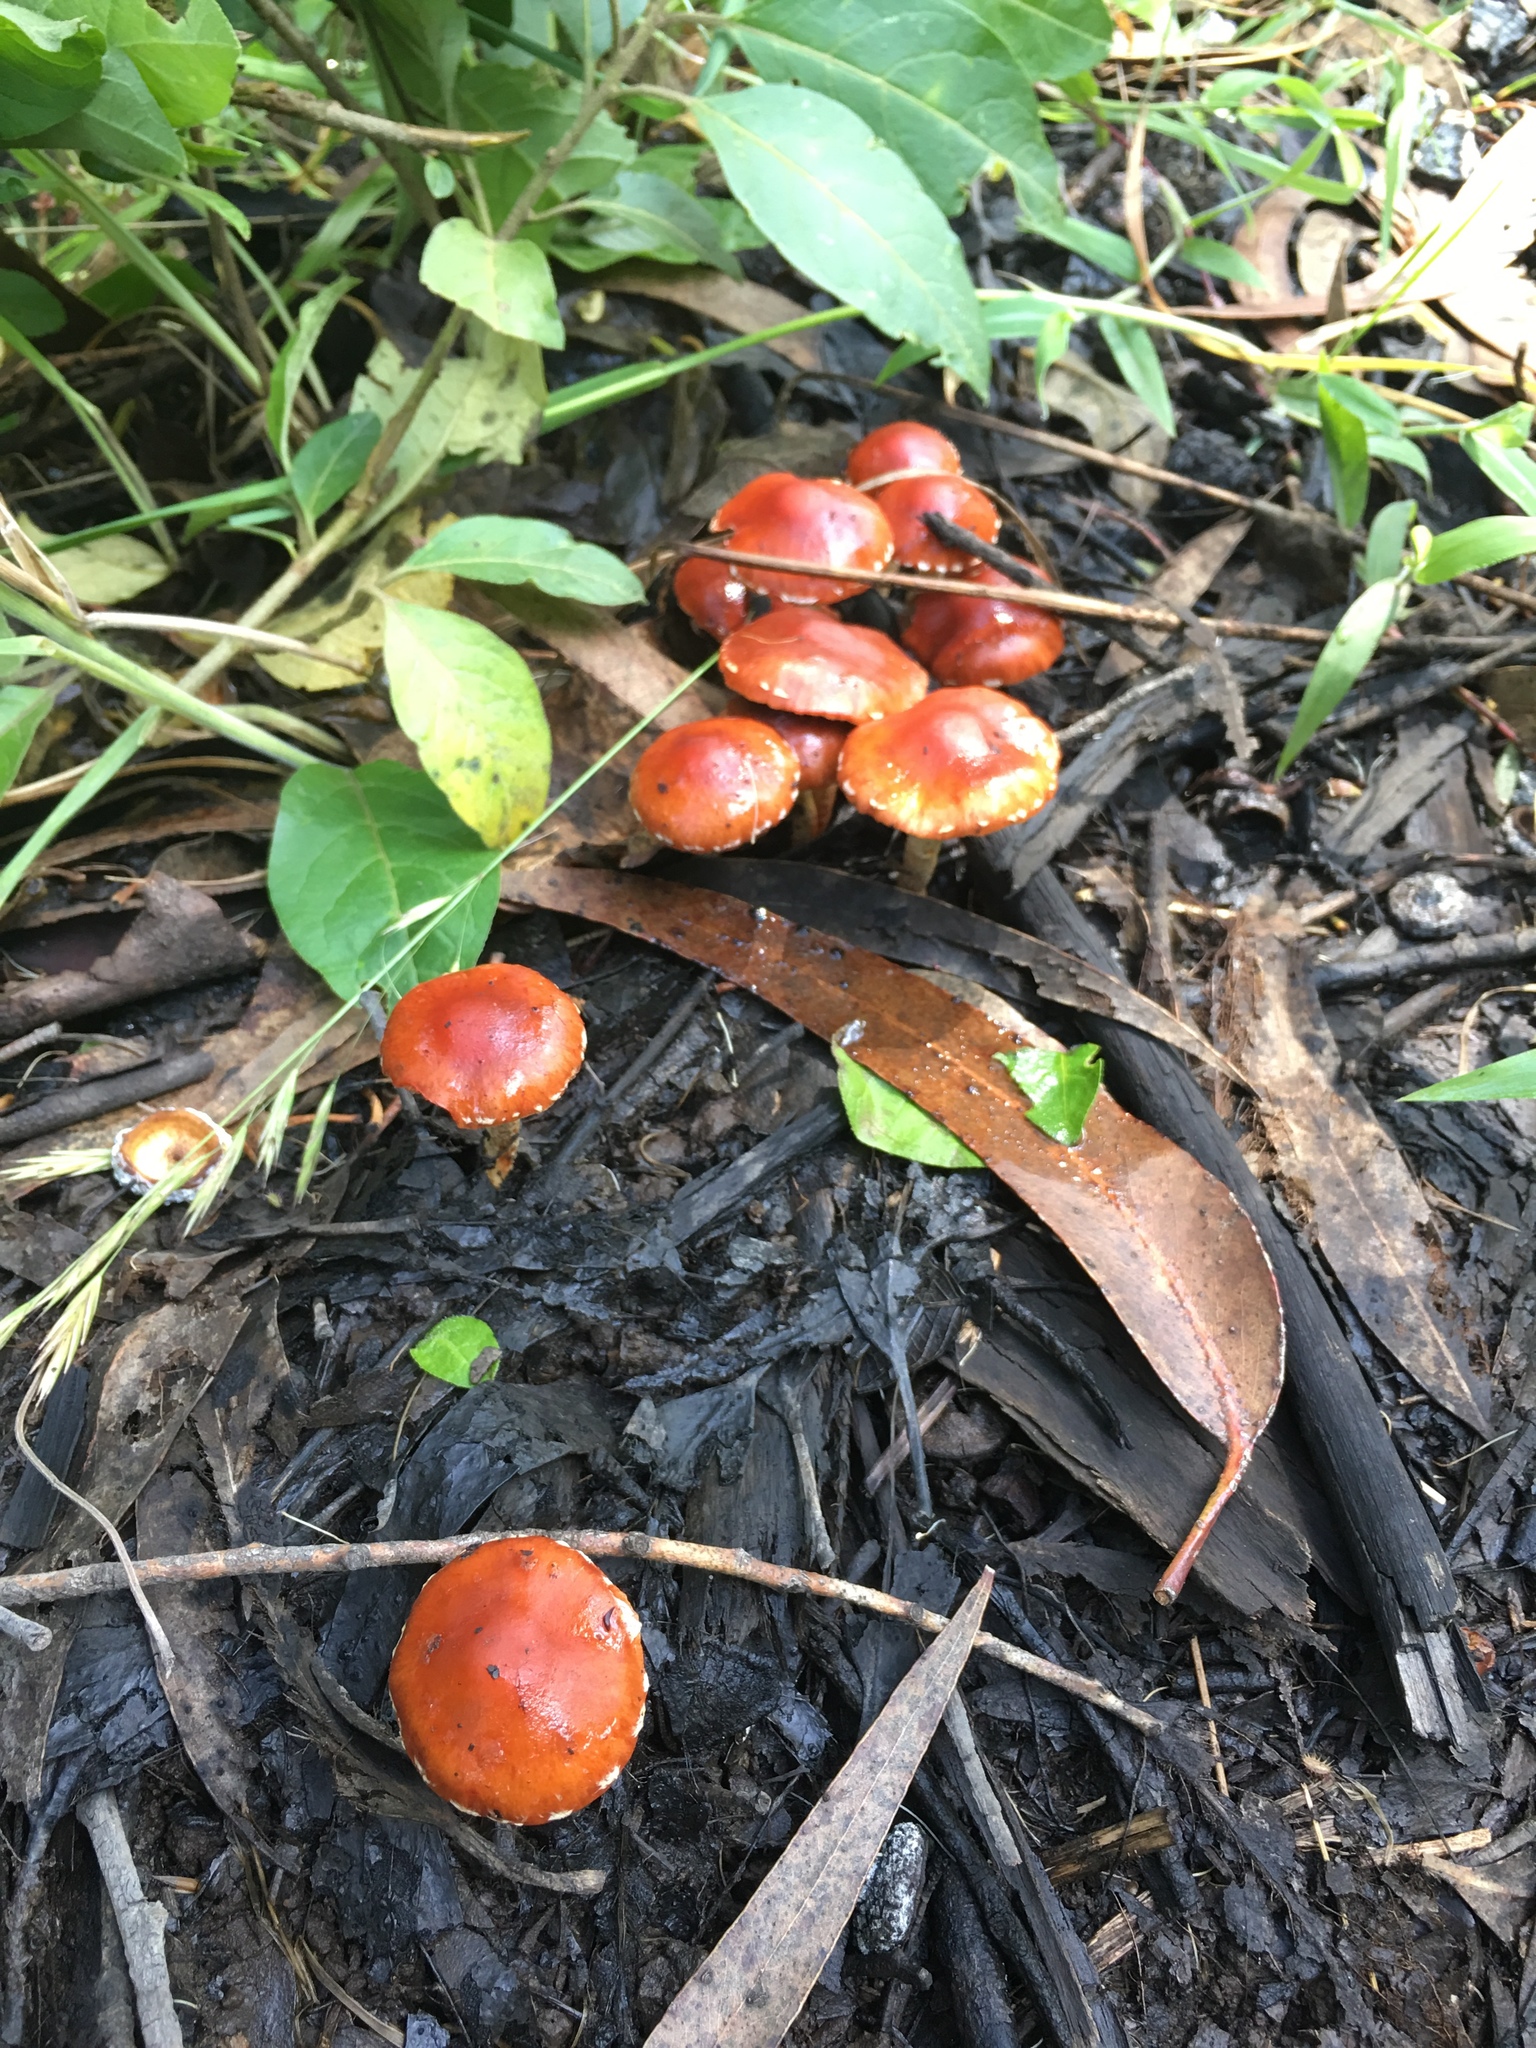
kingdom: Fungi
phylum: Basidiomycota
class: Agaricomycetes
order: Agaricales
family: Strophariaceae
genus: Leratiomyces
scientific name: Leratiomyces ceres
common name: Redlead roundhead
